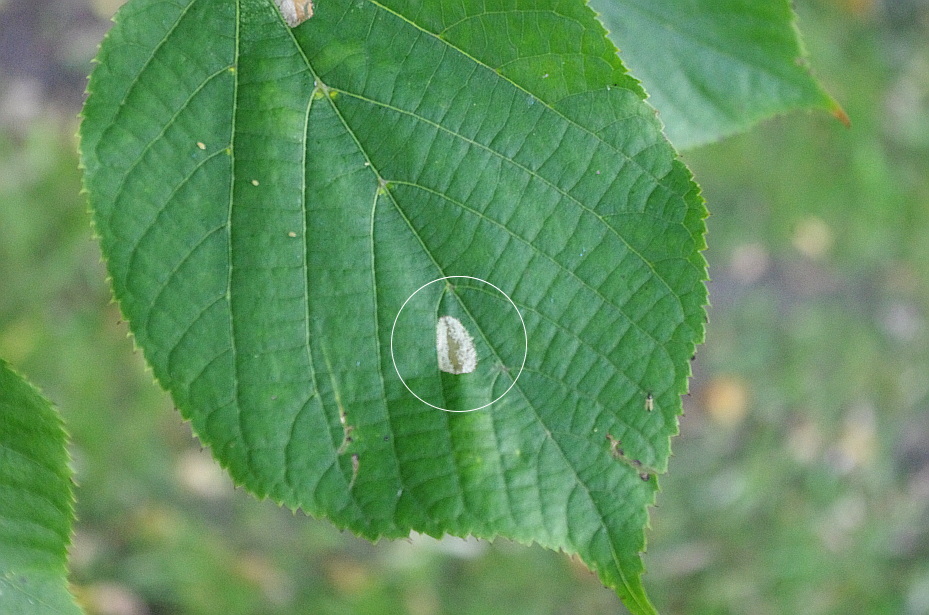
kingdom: Animalia
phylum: Arthropoda
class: Insecta
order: Lepidoptera
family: Gracillariidae
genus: Phyllonorycter
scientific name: Phyllonorycter issikii
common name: Linden midget
